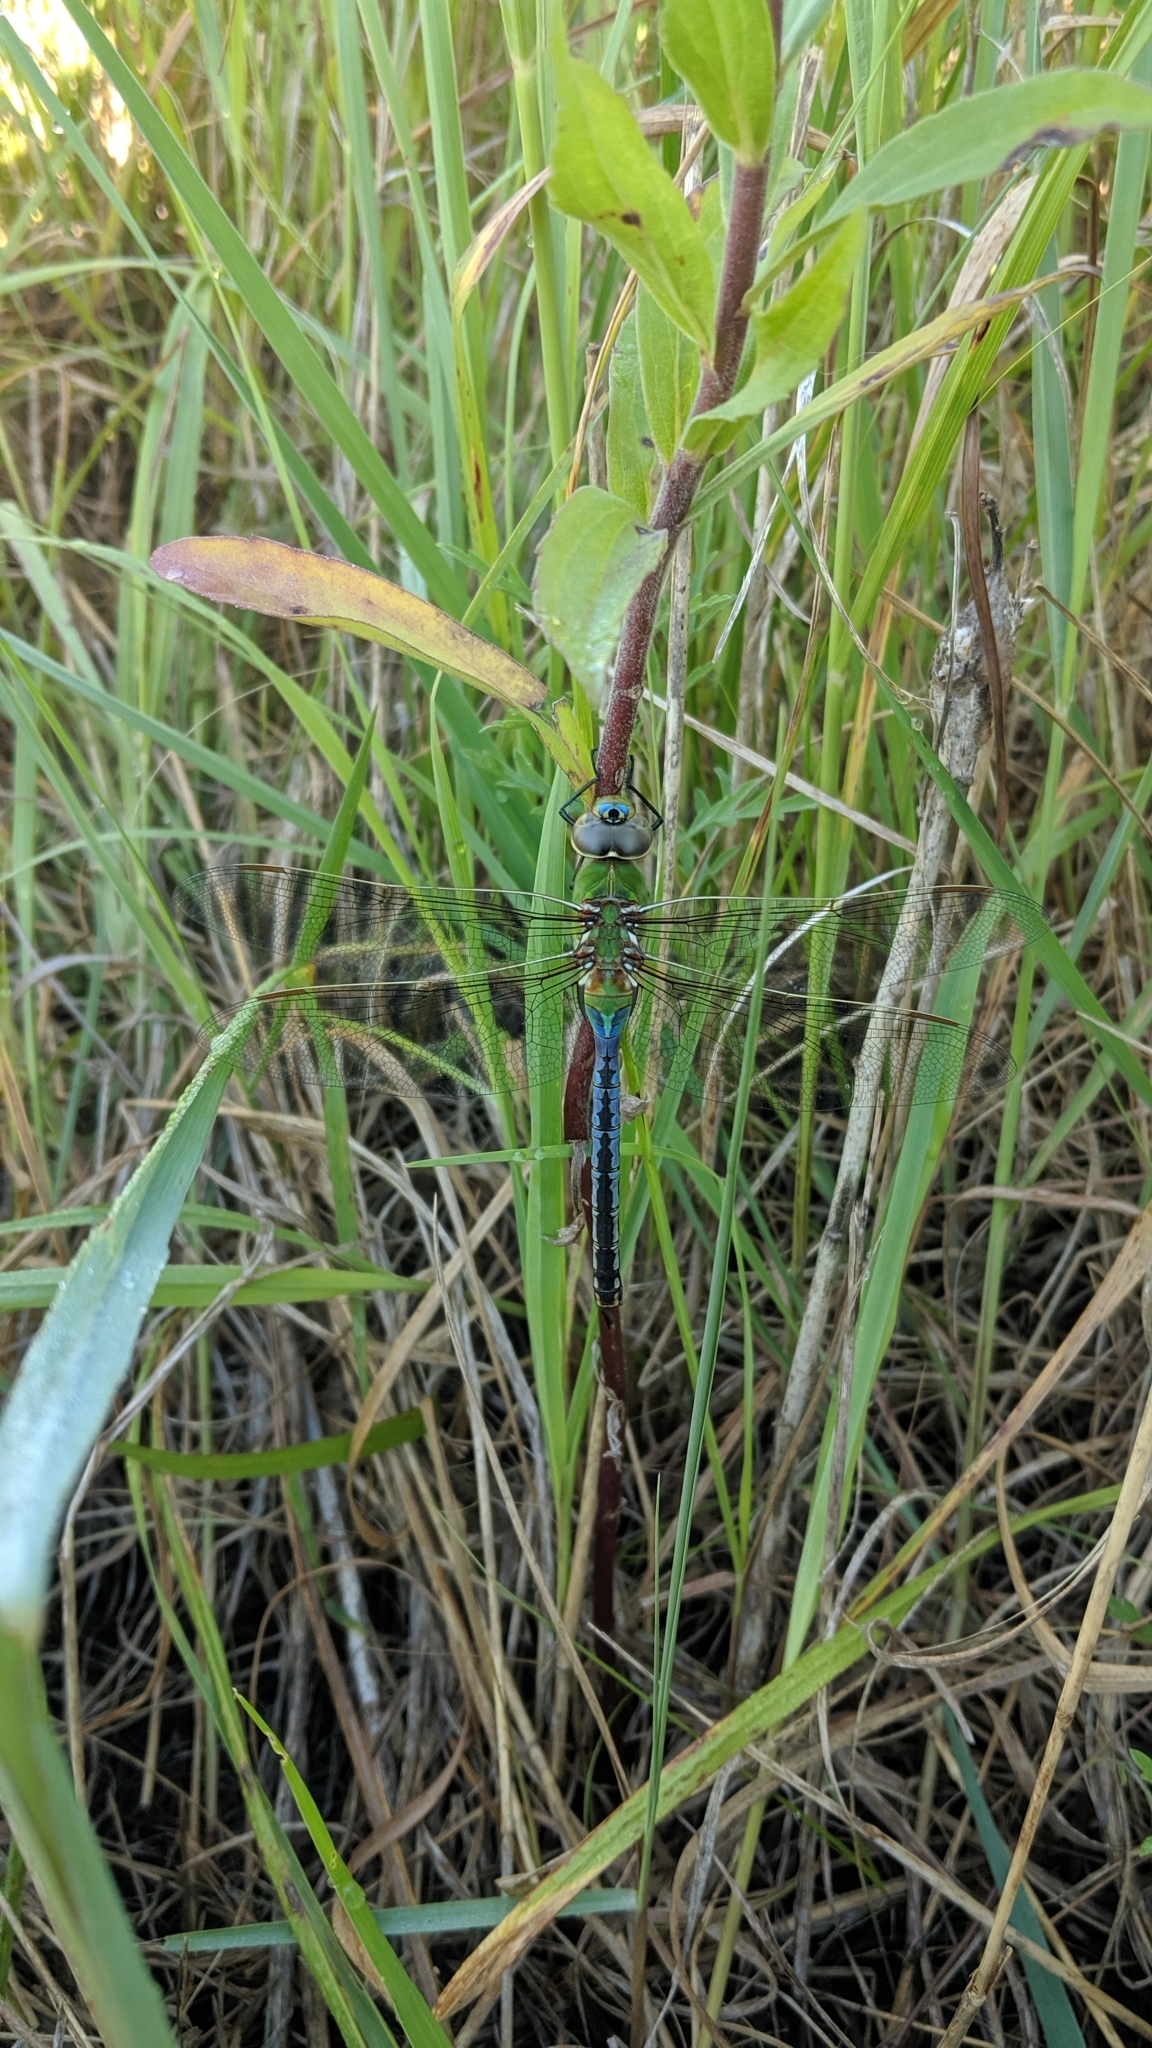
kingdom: Animalia
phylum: Arthropoda
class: Insecta
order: Odonata
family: Aeshnidae
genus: Anax
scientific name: Anax junius
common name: Common green darner
